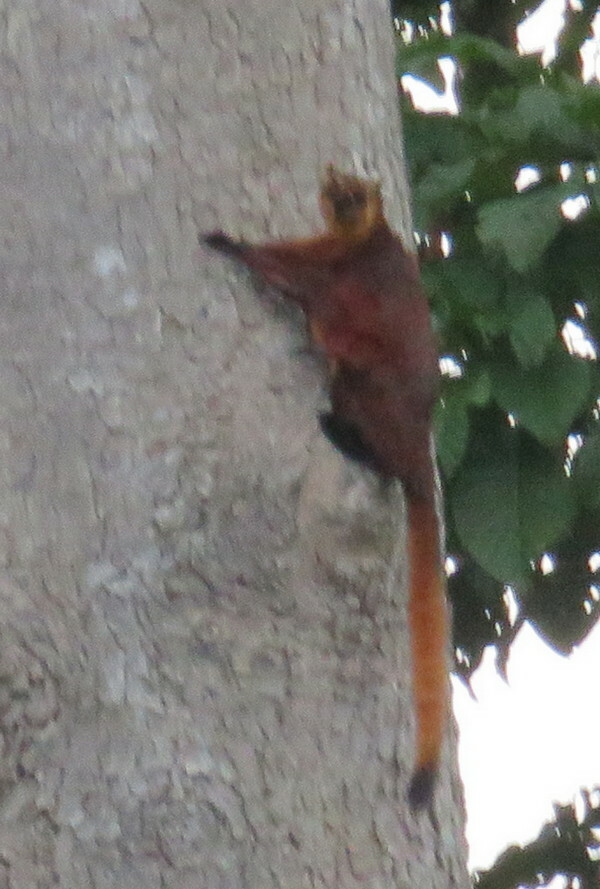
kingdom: Animalia
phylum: Chordata
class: Mammalia
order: Rodentia
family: Sciuridae
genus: Petaurista
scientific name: Petaurista petaurista
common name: Red giant flying squirrel
